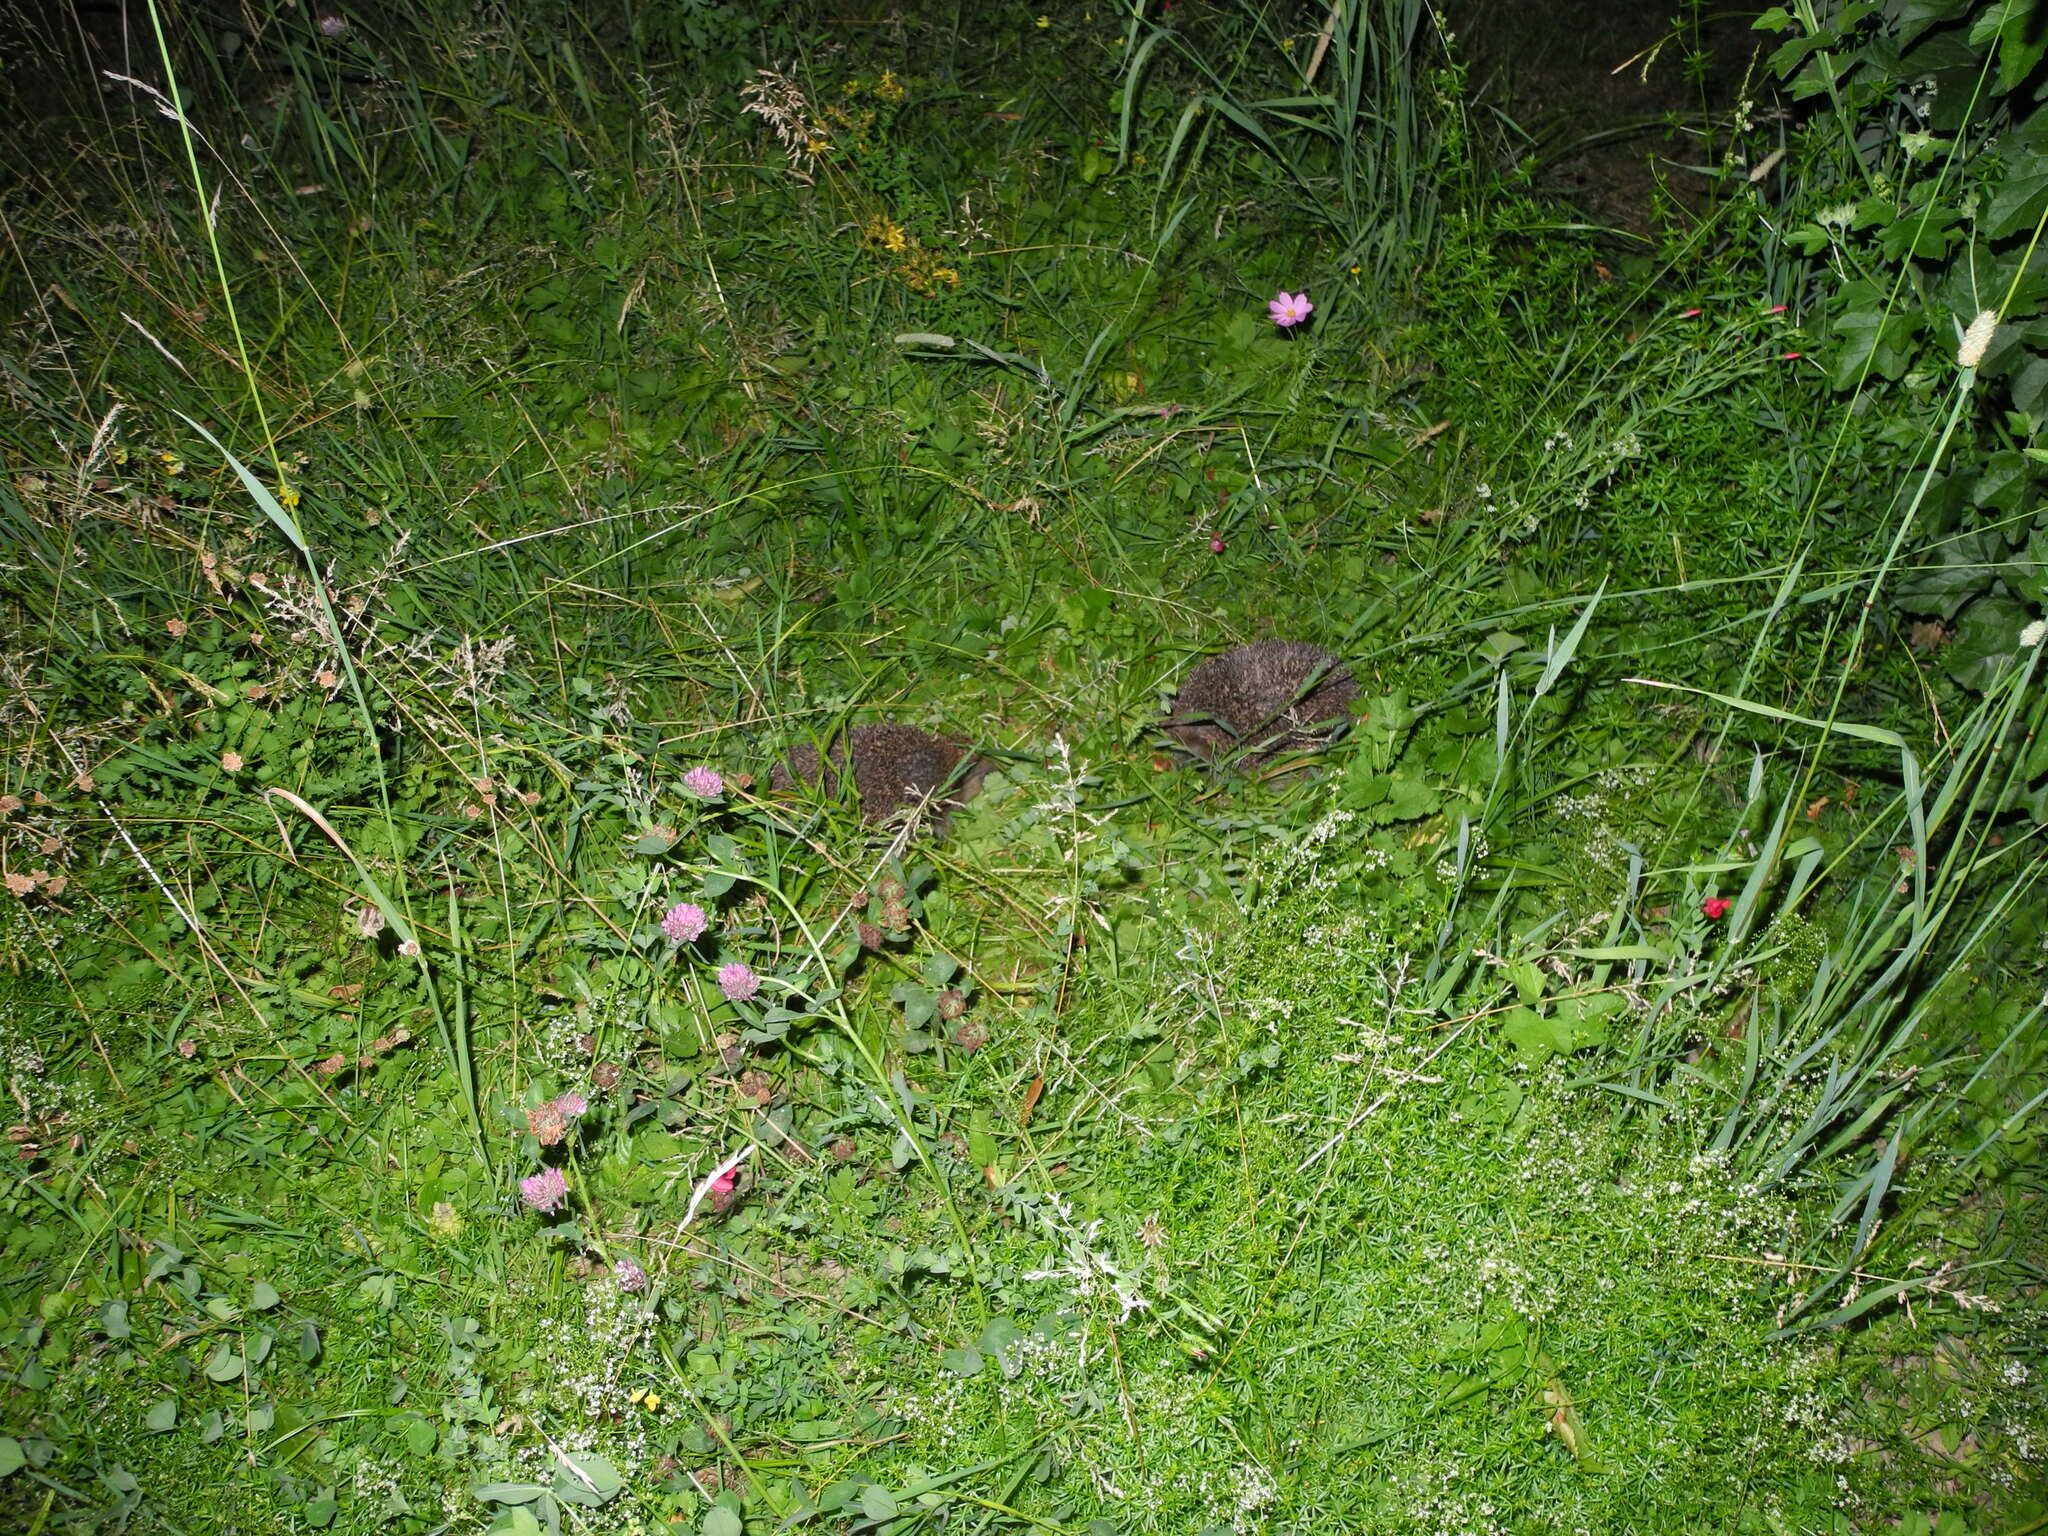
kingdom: Animalia
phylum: Chordata
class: Mammalia
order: Erinaceomorpha
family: Erinaceidae
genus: Erinaceus
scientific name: Erinaceus europaeus
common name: West european hedgehog
